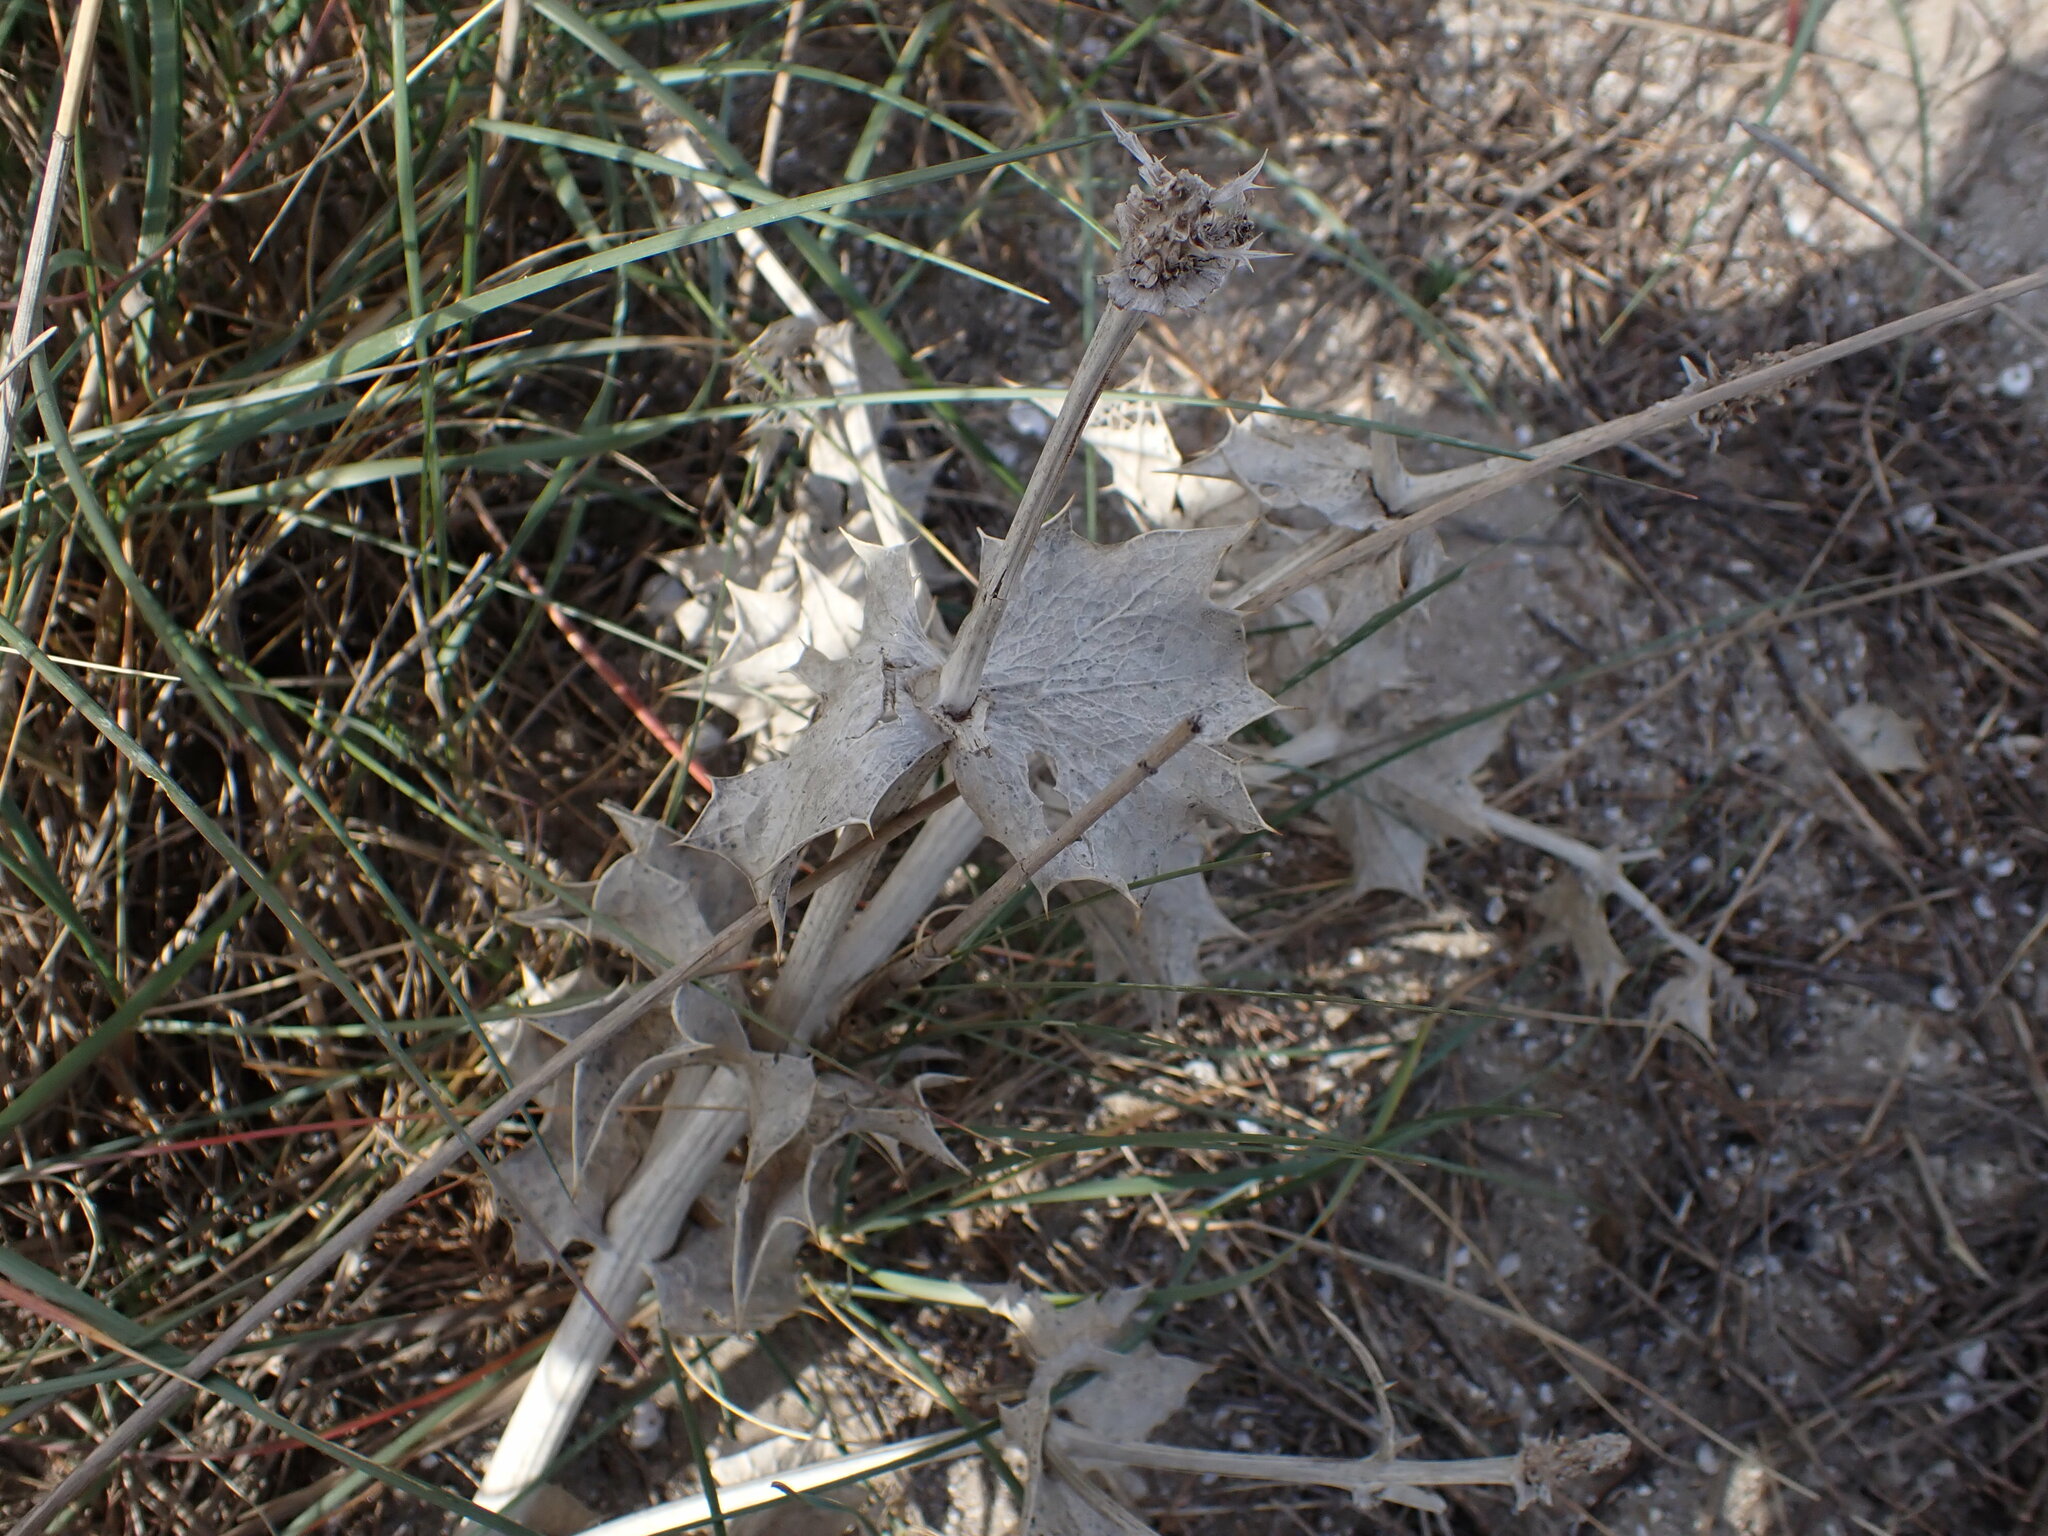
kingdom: Plantae
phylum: Tracheophyta
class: Magnoliopsida
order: Apiales
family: Apiaceae
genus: Eryngium
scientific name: Eryngium maritimum
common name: Sea-holly
